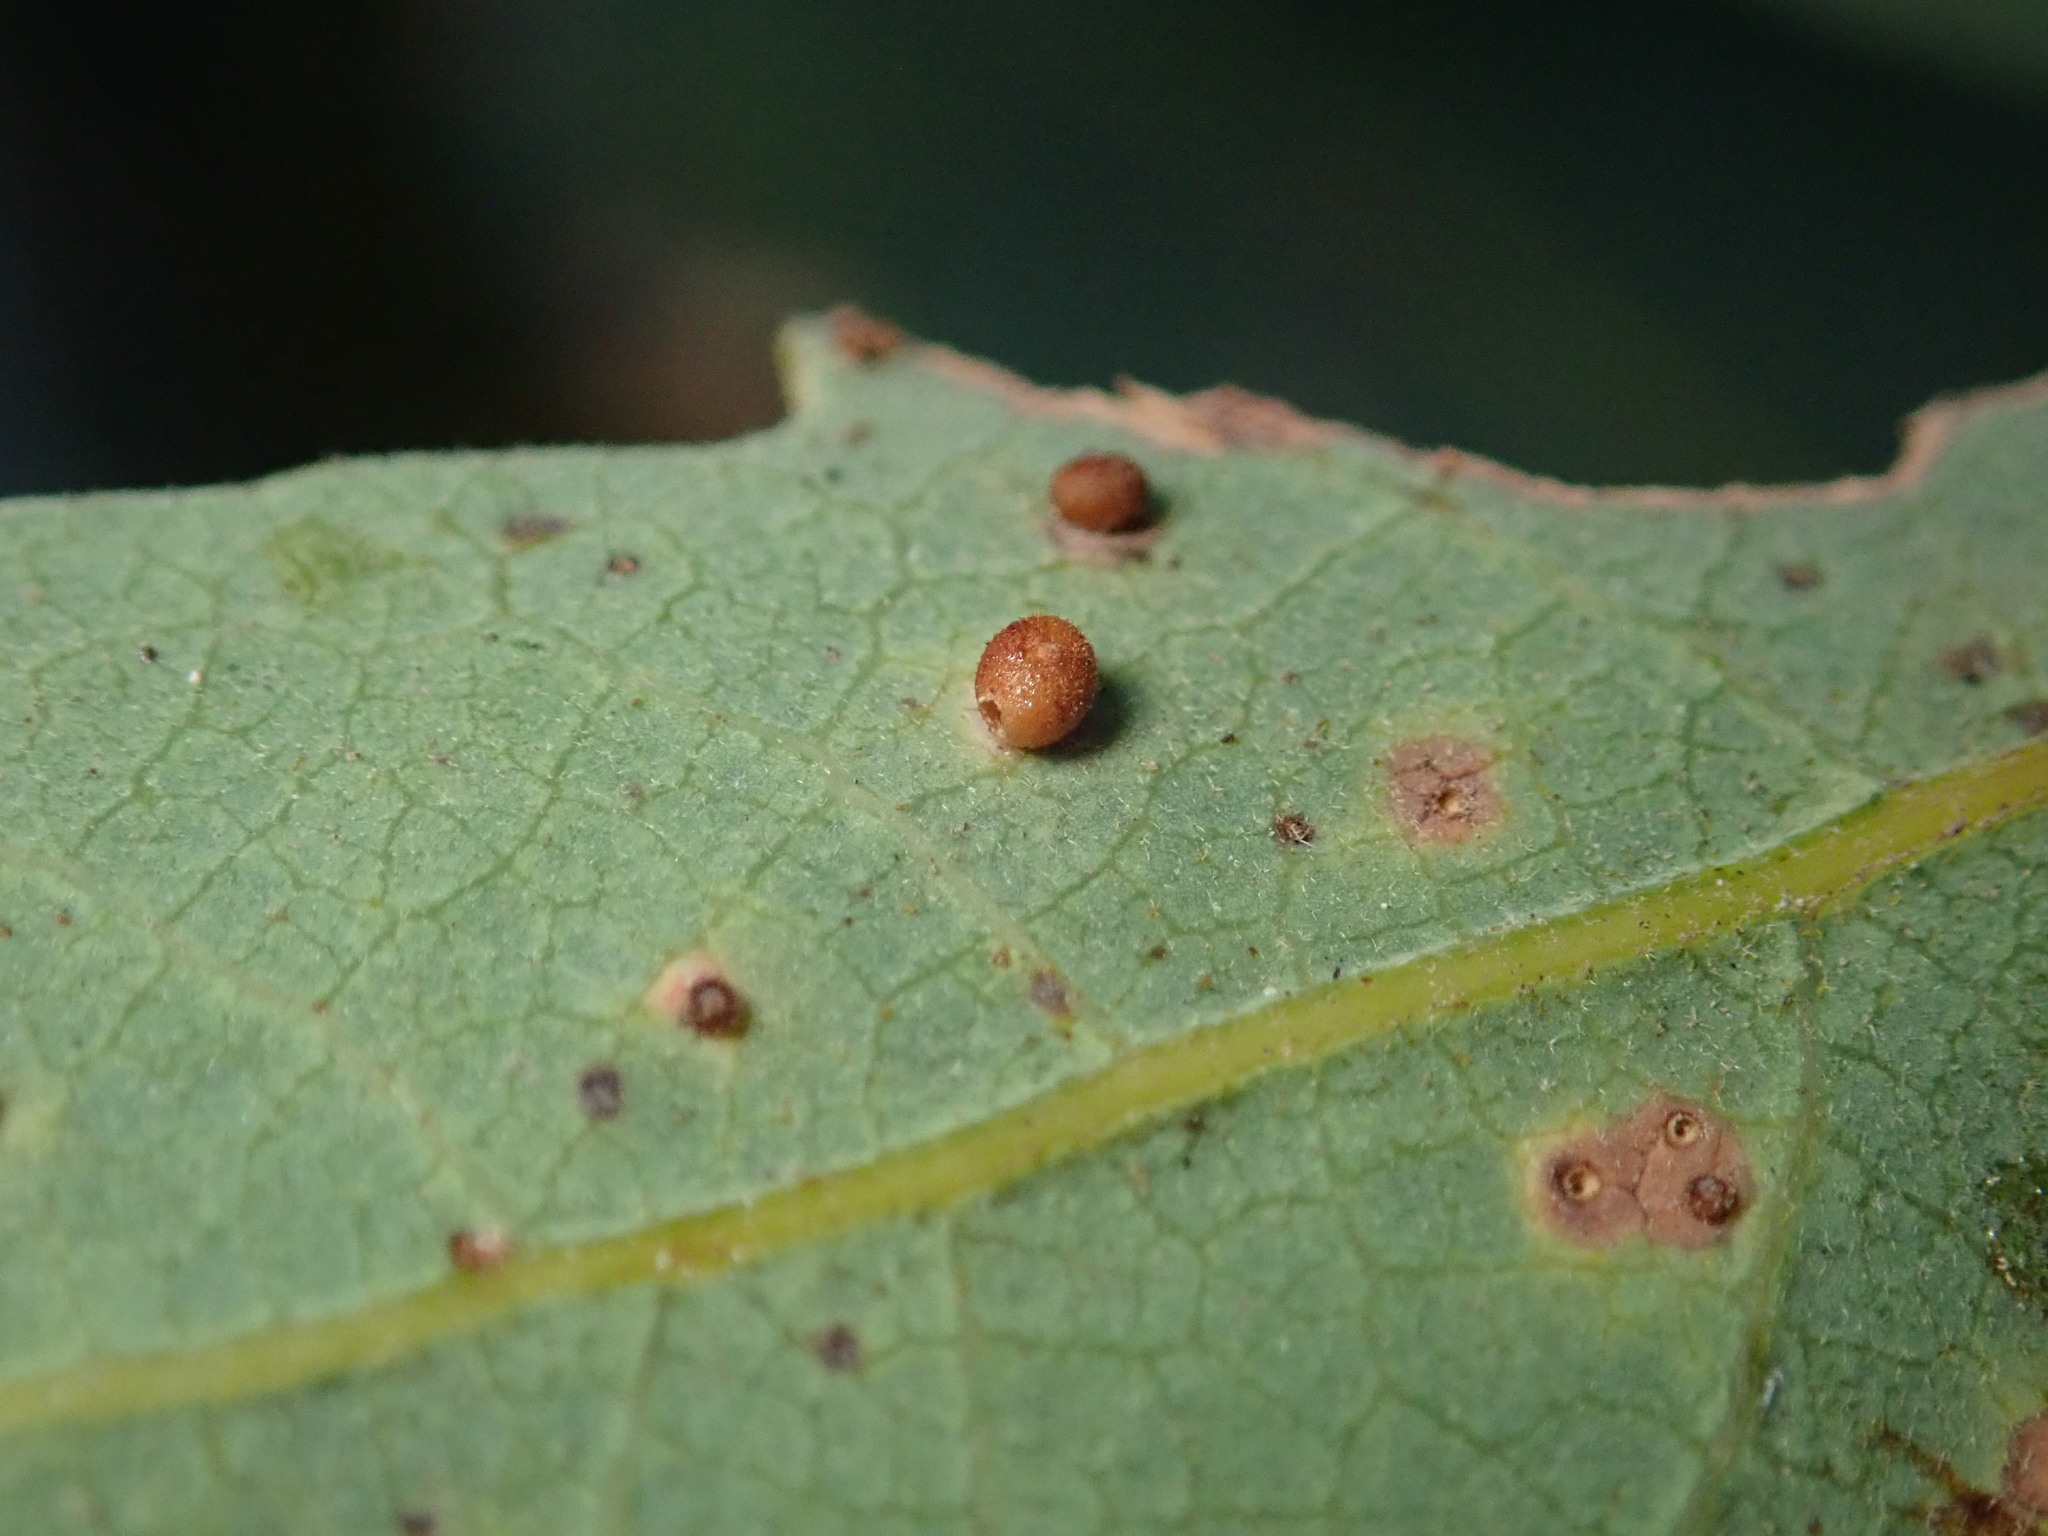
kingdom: Animalia
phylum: Arthropoda
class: Insecta
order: Hymenoptera
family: Cynipidae
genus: Neuroterus
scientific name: Neuroterus saltarius
